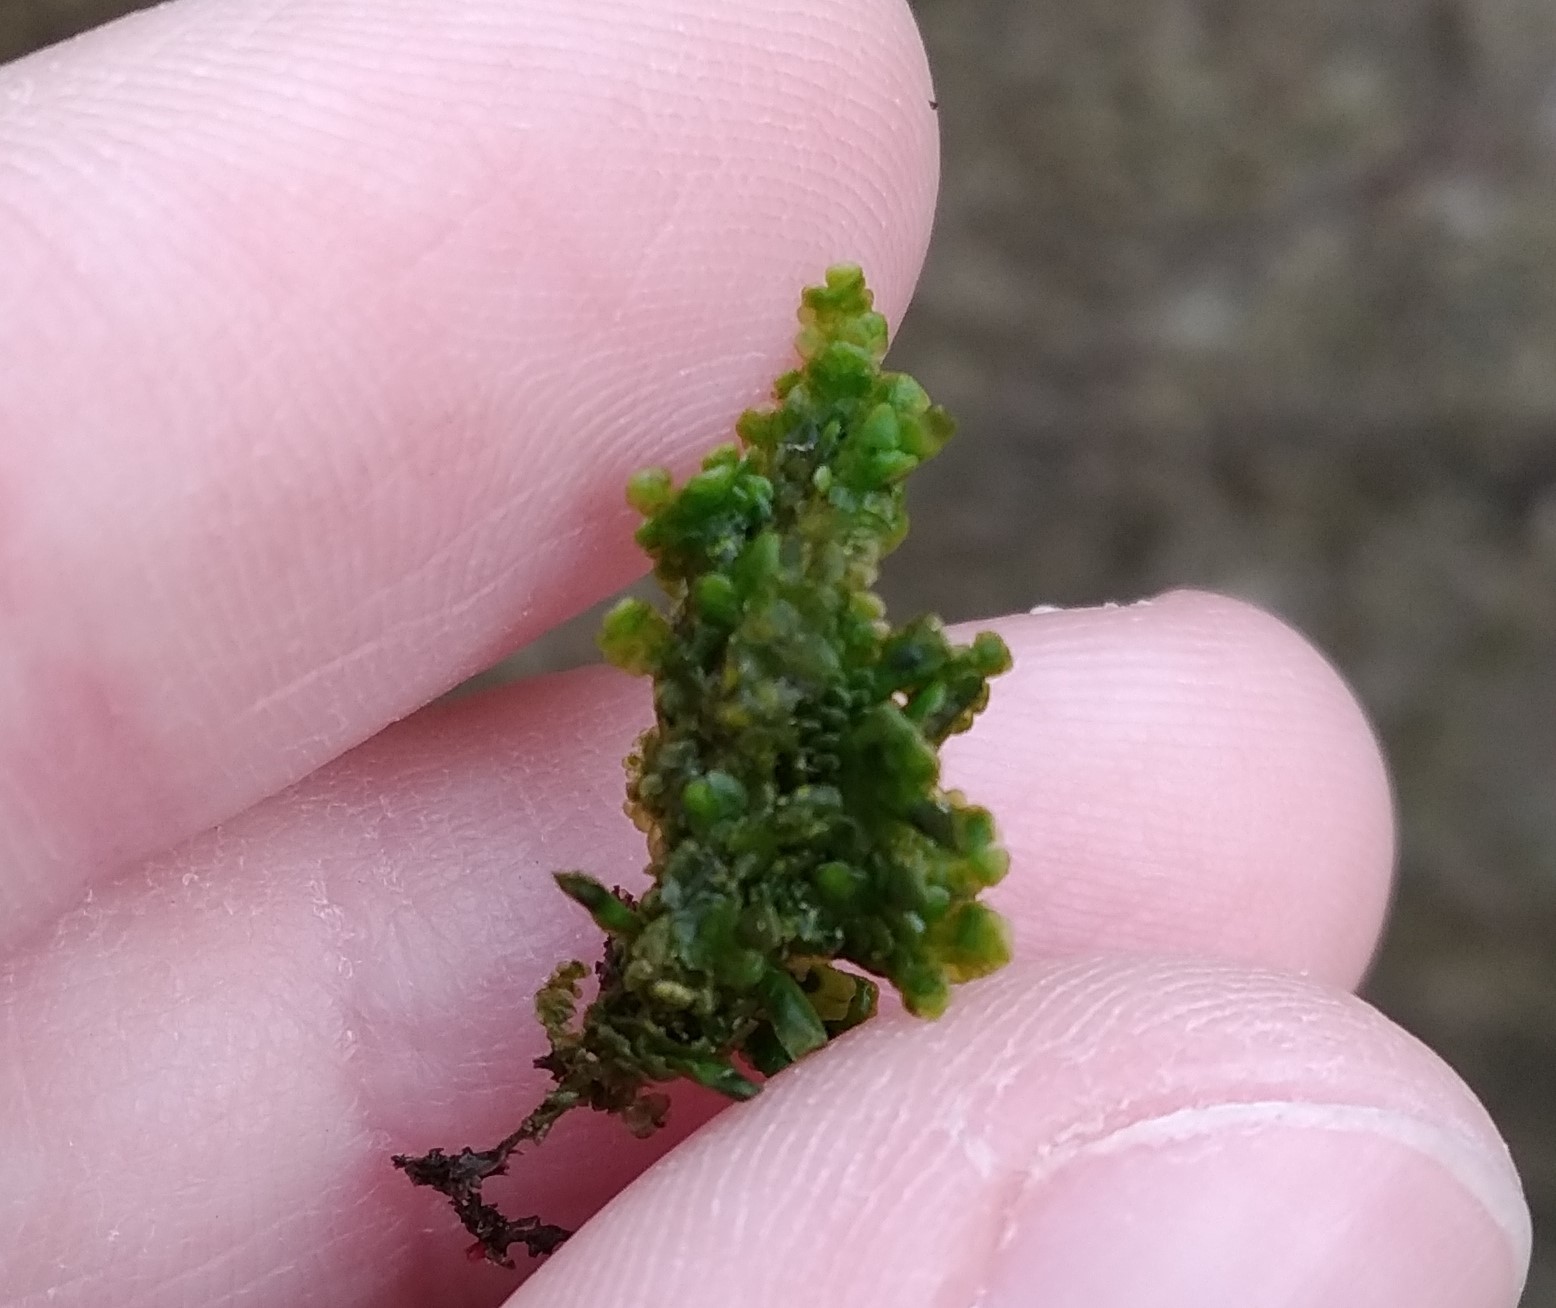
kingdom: Plantae
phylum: Marchantiophyta
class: Jungermanniopsida
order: Porellales
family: Radulaceae
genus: Radula
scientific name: Radula complanata
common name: Flat-leaved scalewort
